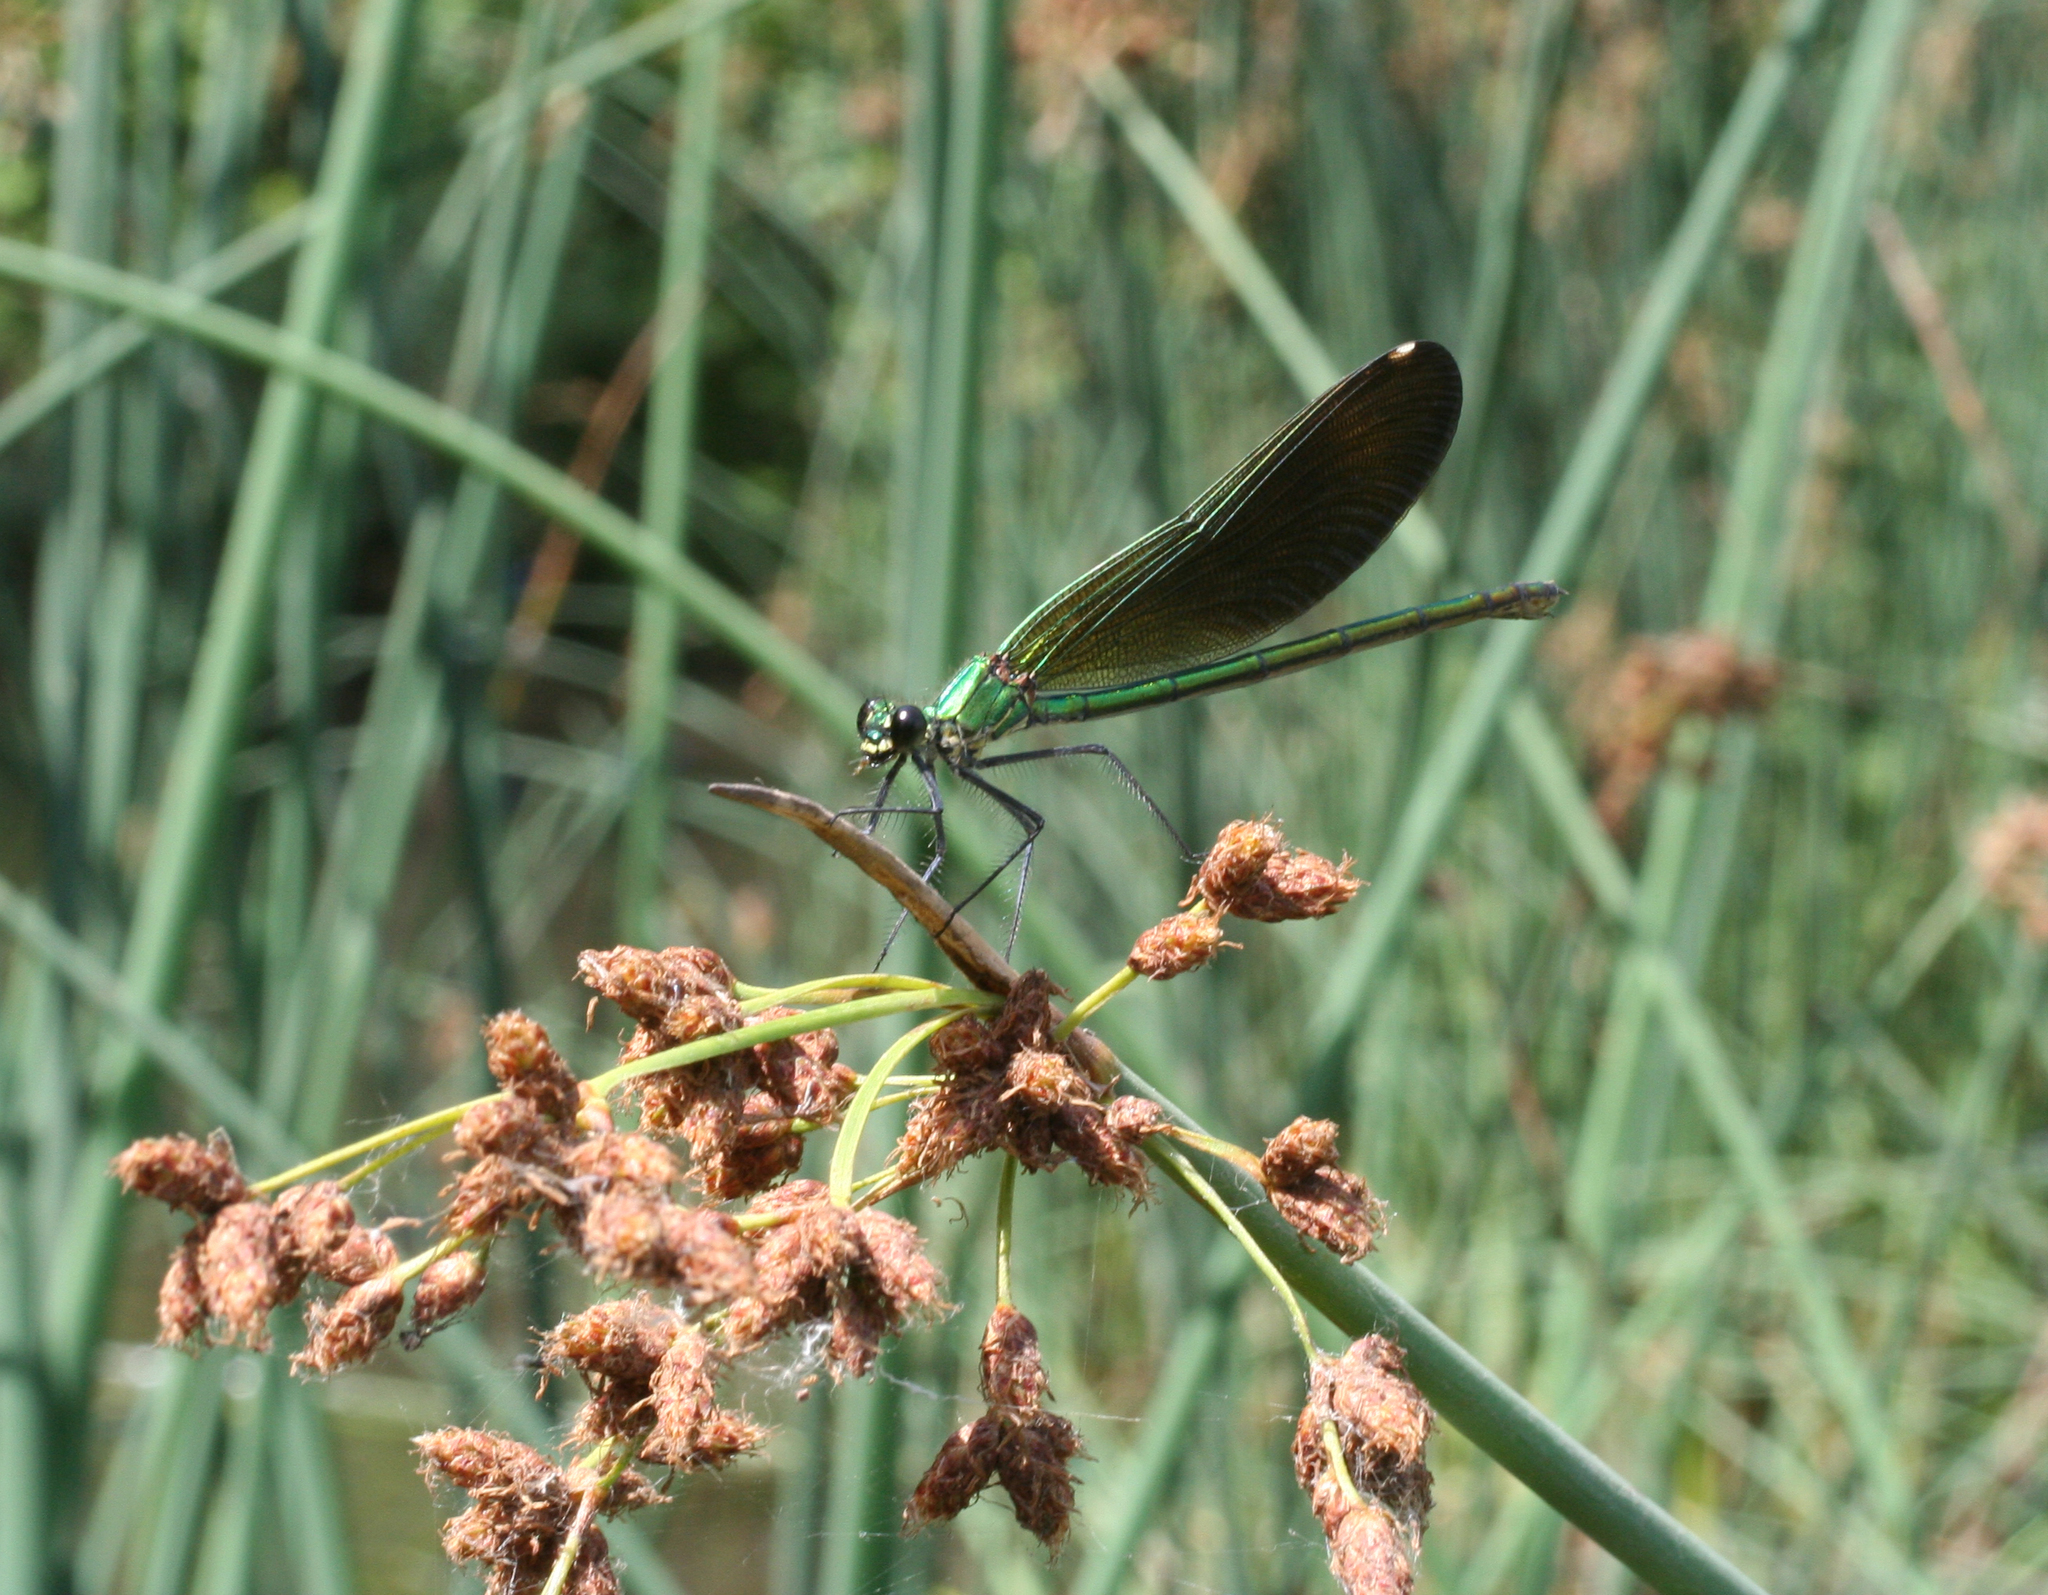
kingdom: Animalia
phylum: Arthropoda
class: Insecta
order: Odonata
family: Calopterygidae
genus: Calopteryx
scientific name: Calopteryx splendens
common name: Banded demoiselle
